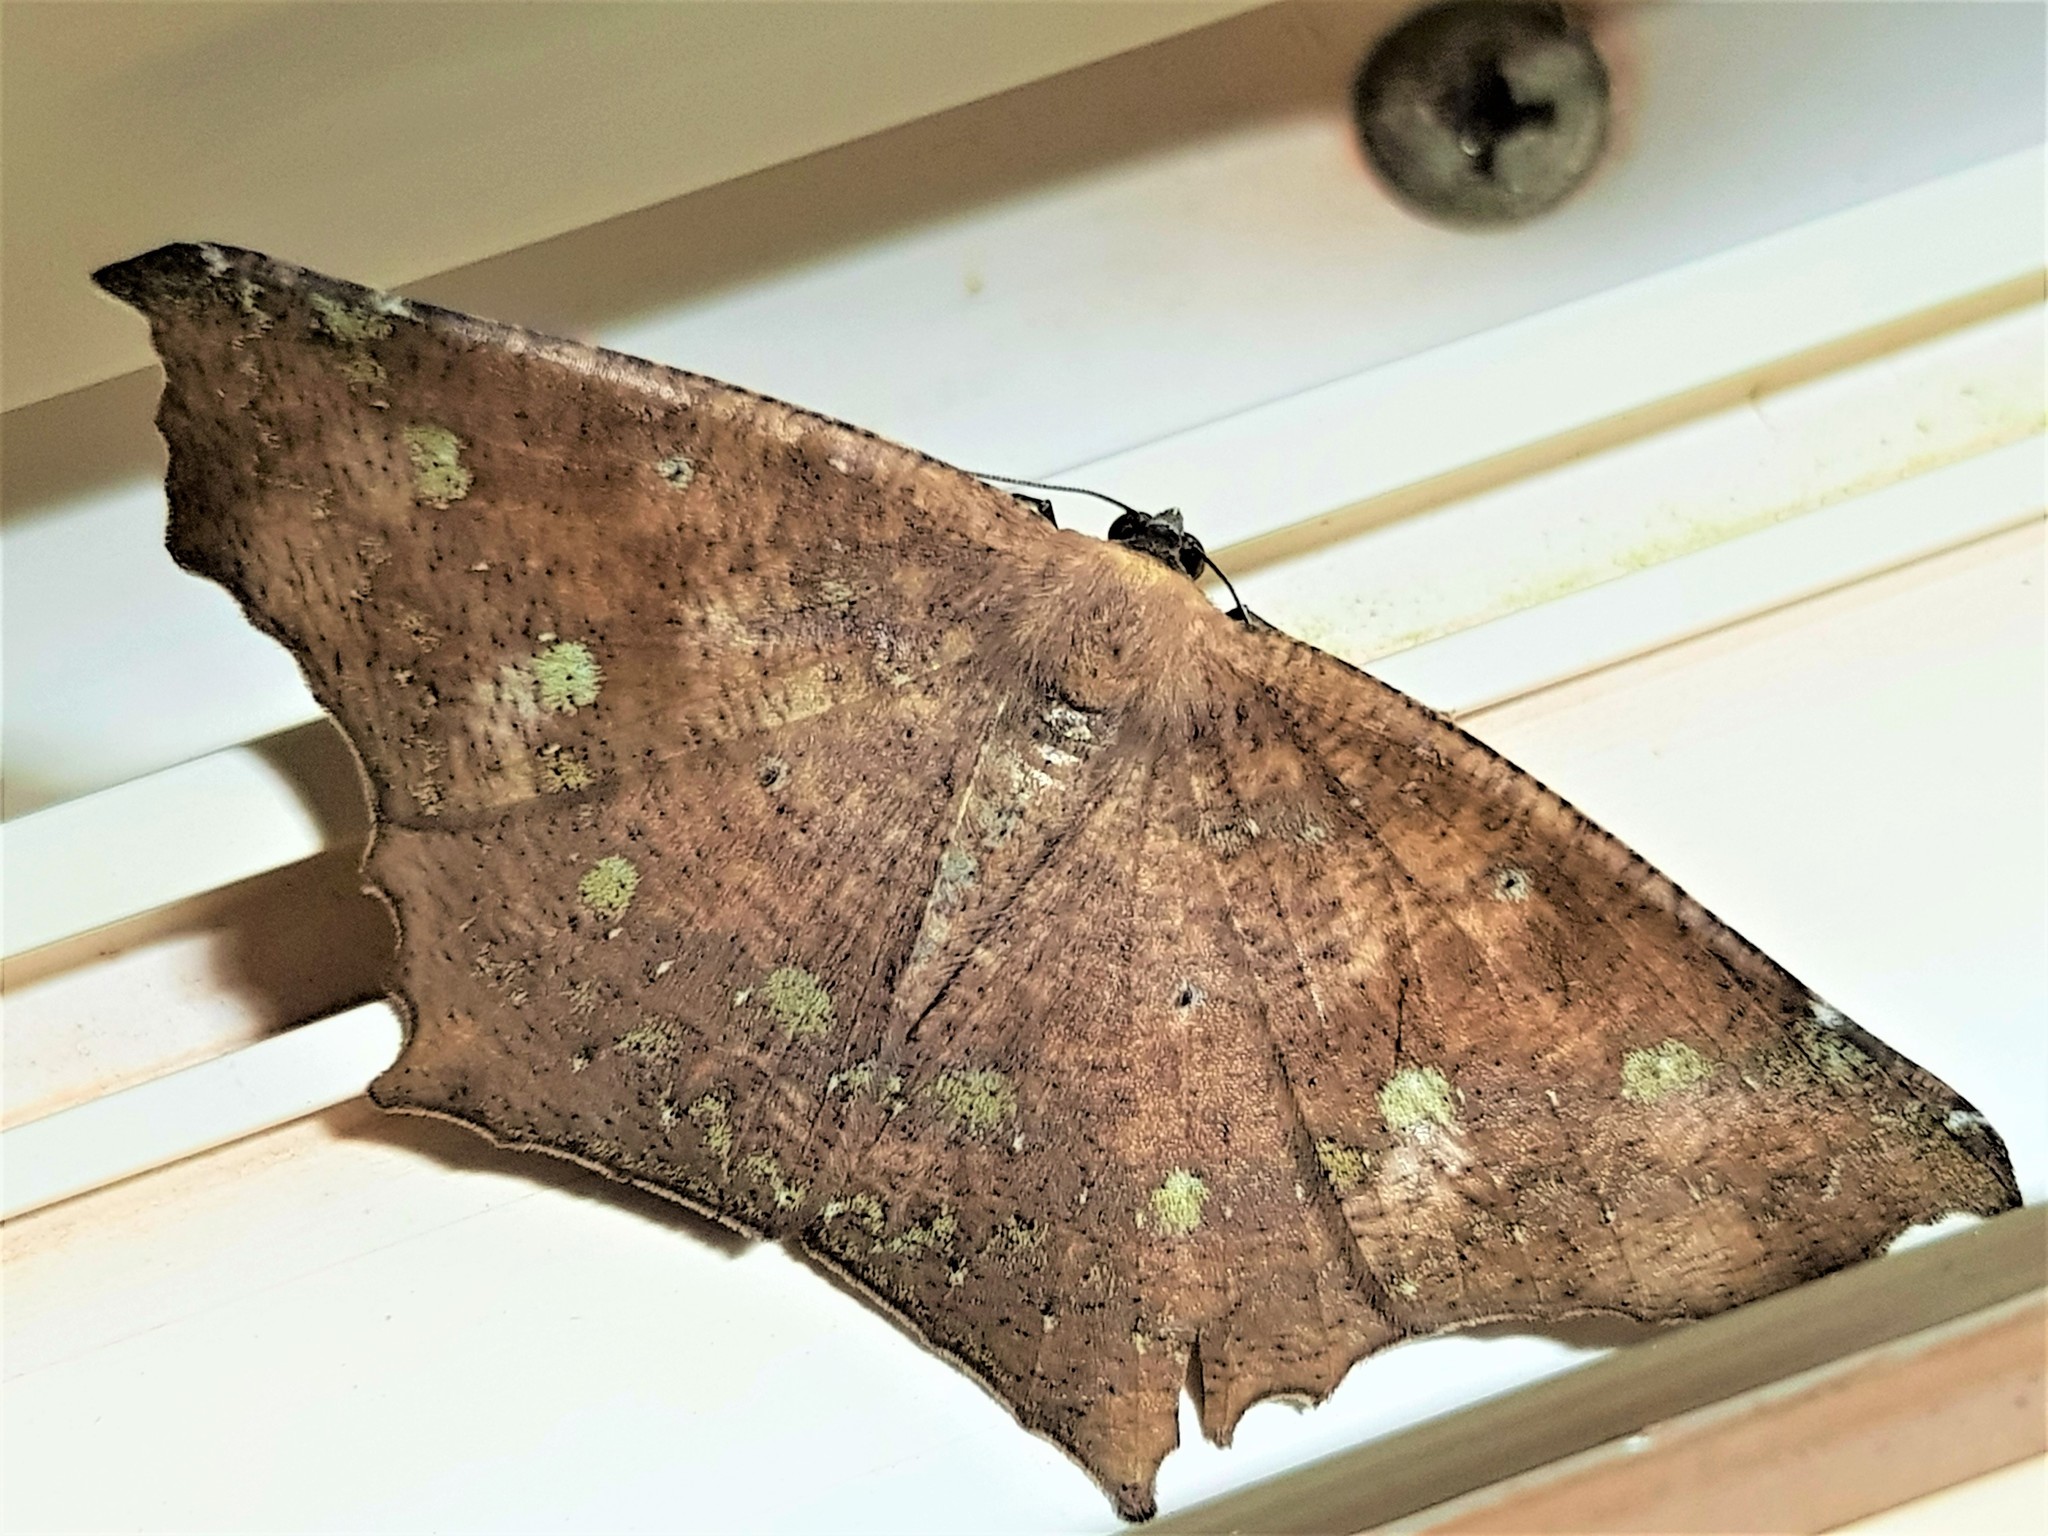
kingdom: Animalia
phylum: Arthropoda
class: Insecta
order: Lepidoptera
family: Geometridae
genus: Paragonia
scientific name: Paragonia cruraria
